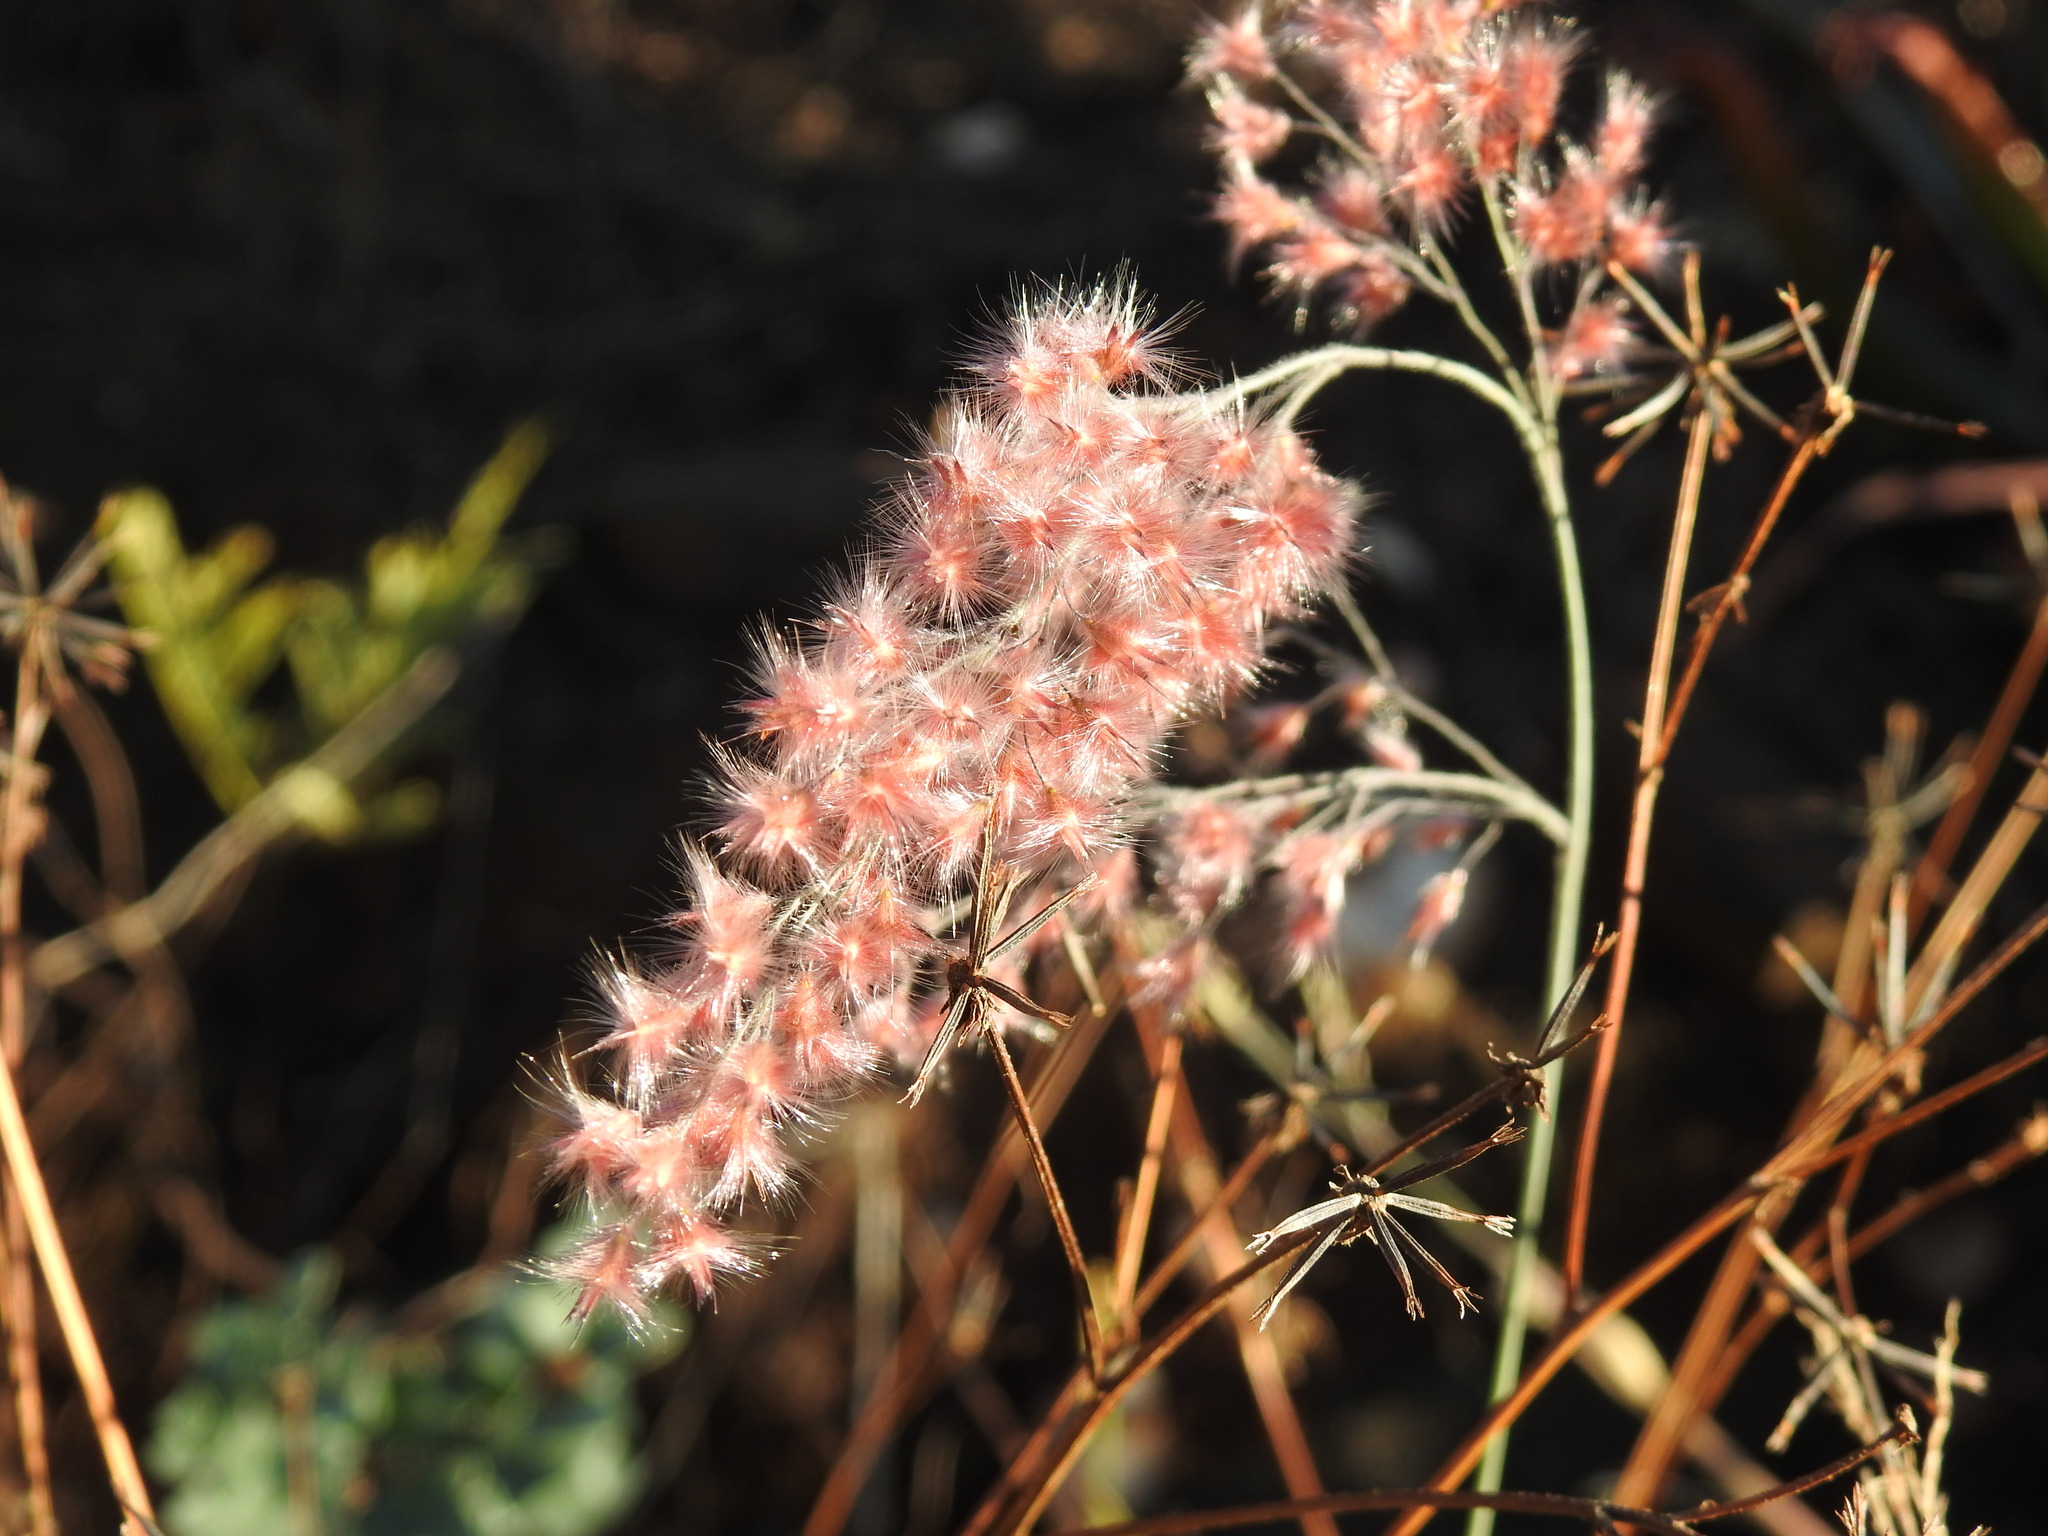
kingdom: Plantae
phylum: Tracheophyta
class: Liliopsida
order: Poales
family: Poaceae
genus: Melinis
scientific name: Melinis repens
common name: Rose natal grass
